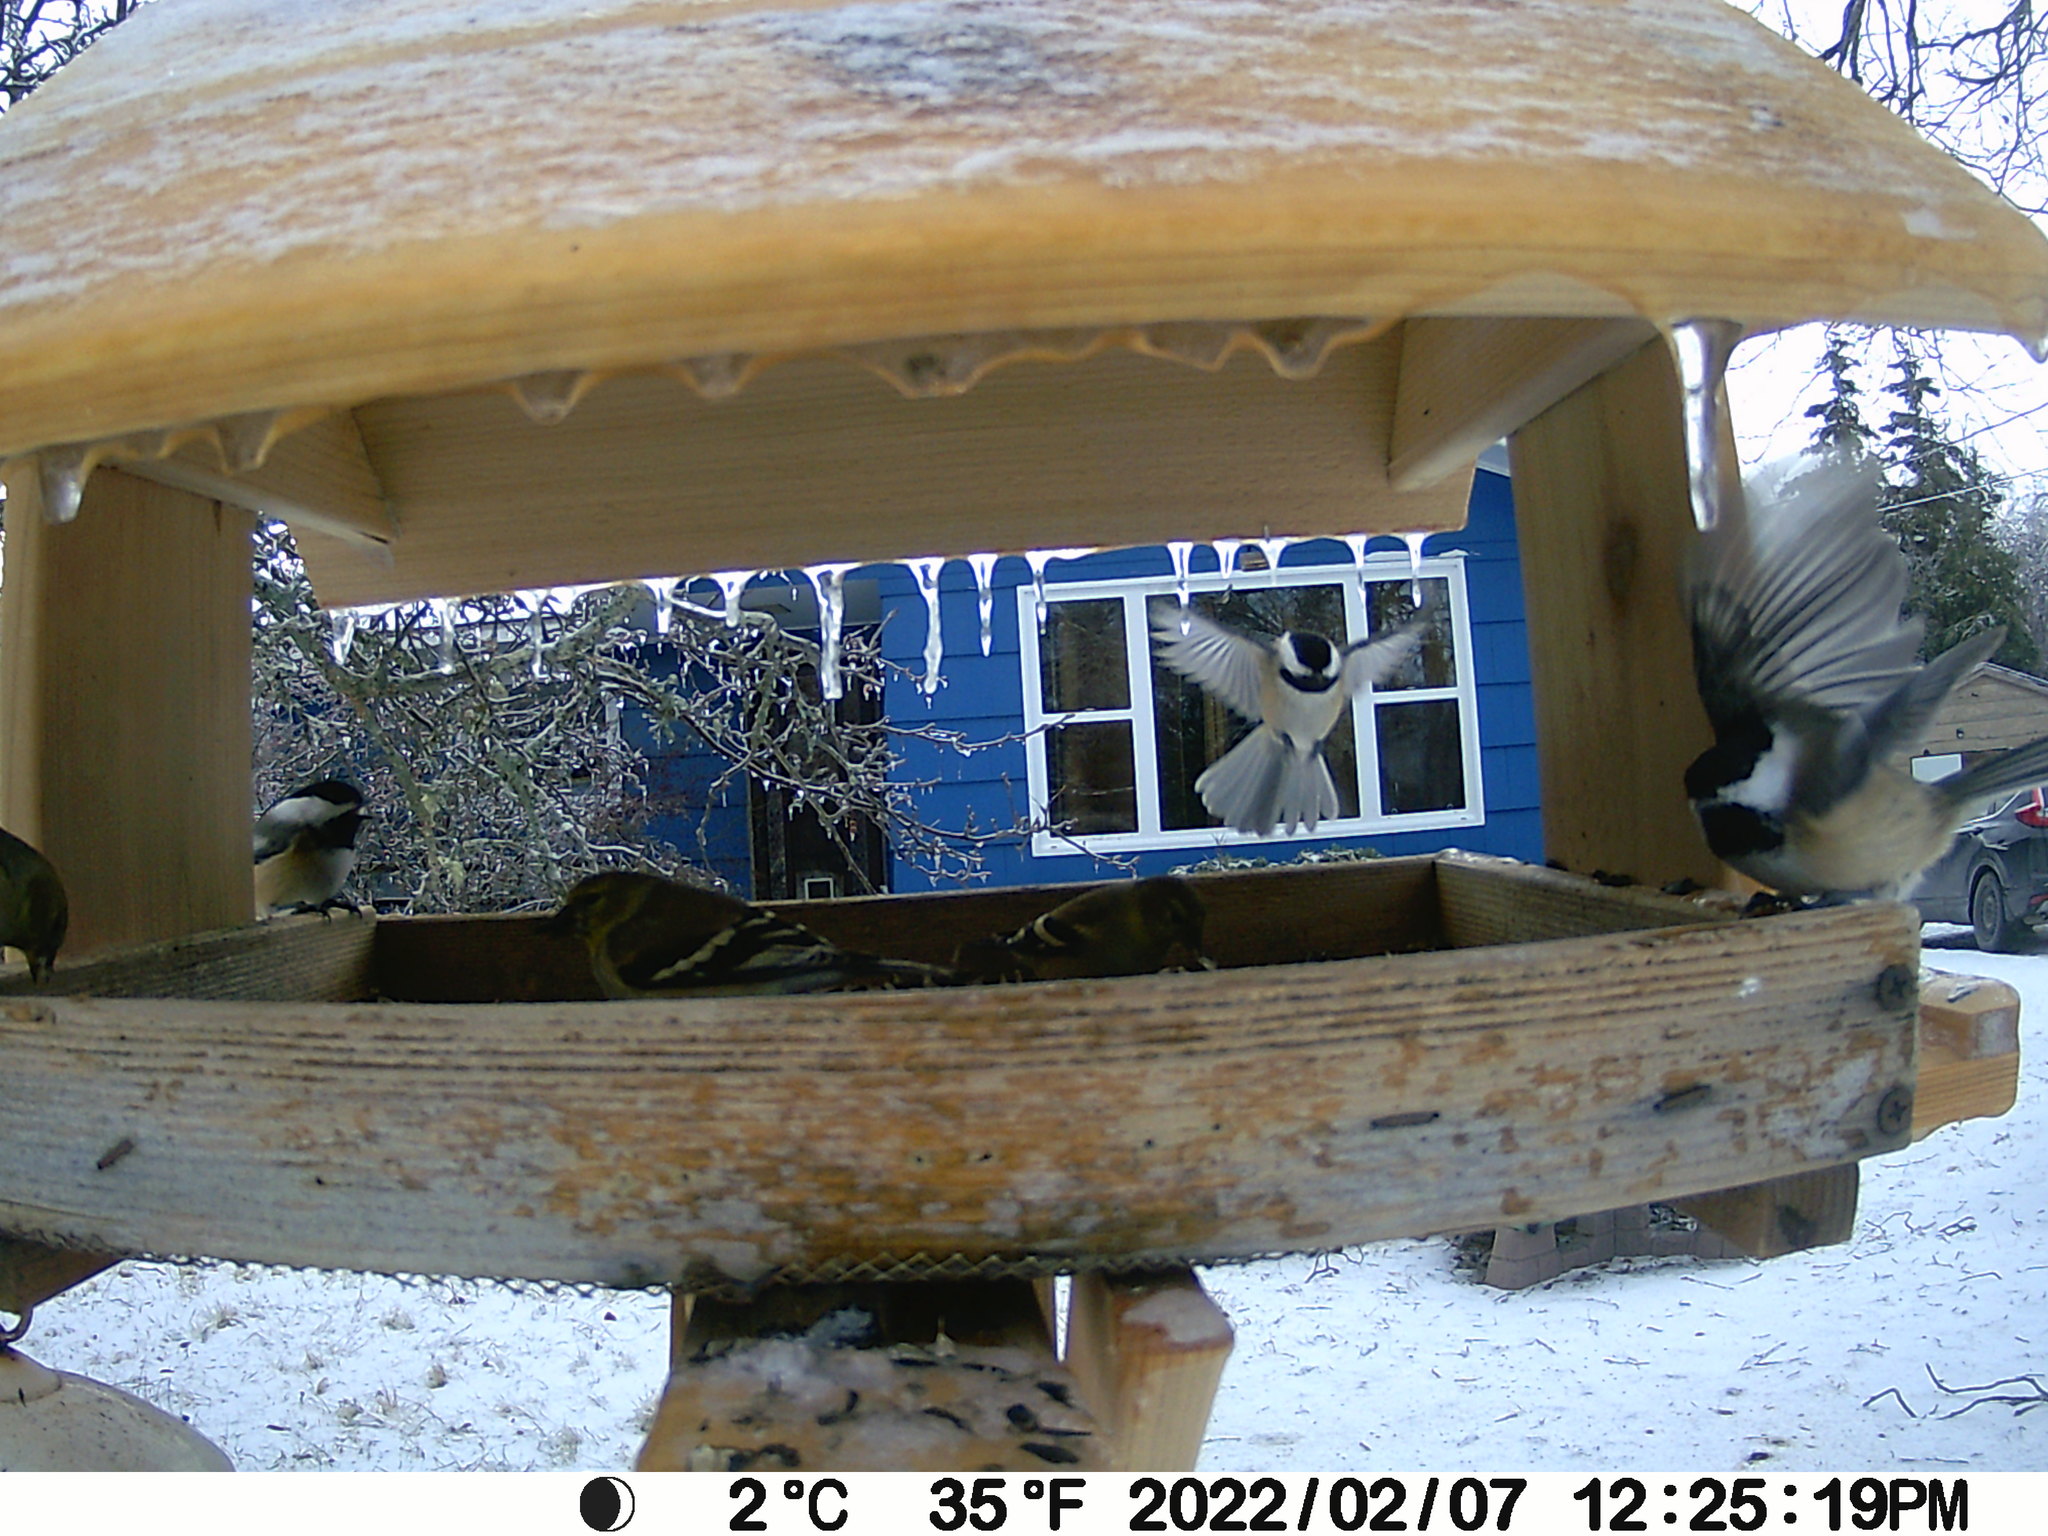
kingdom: Animalia
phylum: Chordata
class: Aves
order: Passeriformes
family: Paridae
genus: Poecile
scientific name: Poecile atricapillus
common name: Black-capped chickadee
